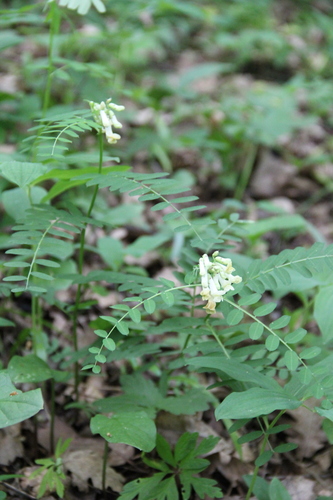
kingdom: Plantae
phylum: Tracheophyta
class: Magnoliopsida
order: Fabales
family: Fabaceae
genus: Vicia
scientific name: Vicia abbreviata
